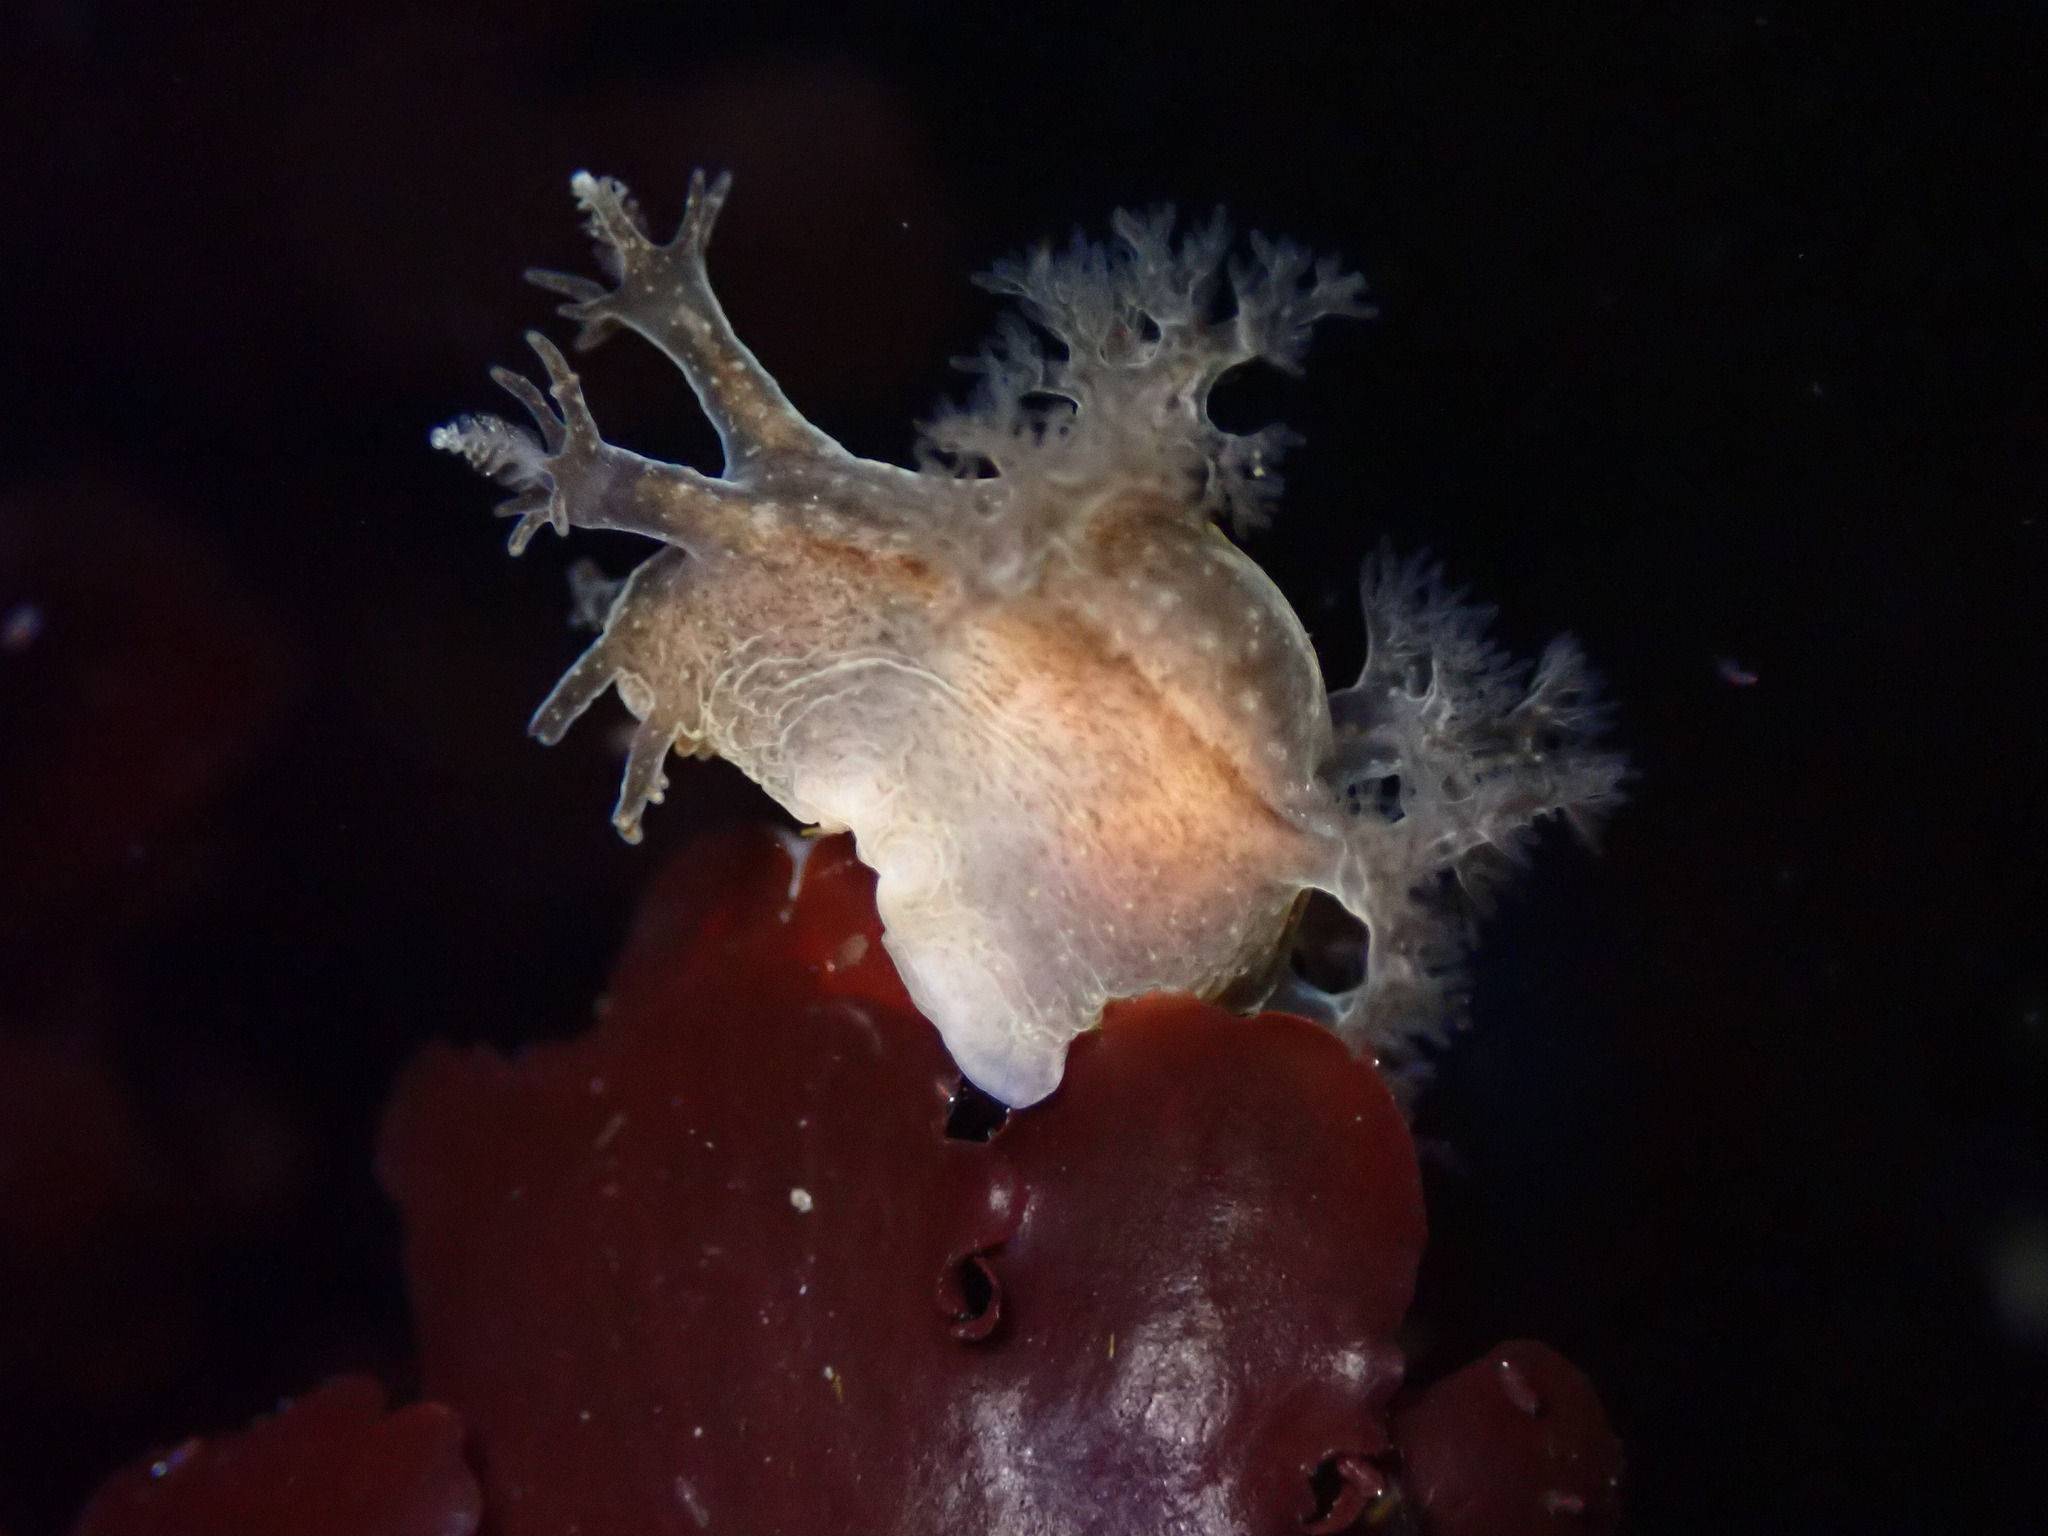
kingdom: Animalia
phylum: Mollusca
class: Gastropoda
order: Nudibranchia
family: Dendronotidae
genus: Dendronotus
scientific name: Dendronotus subramosus
